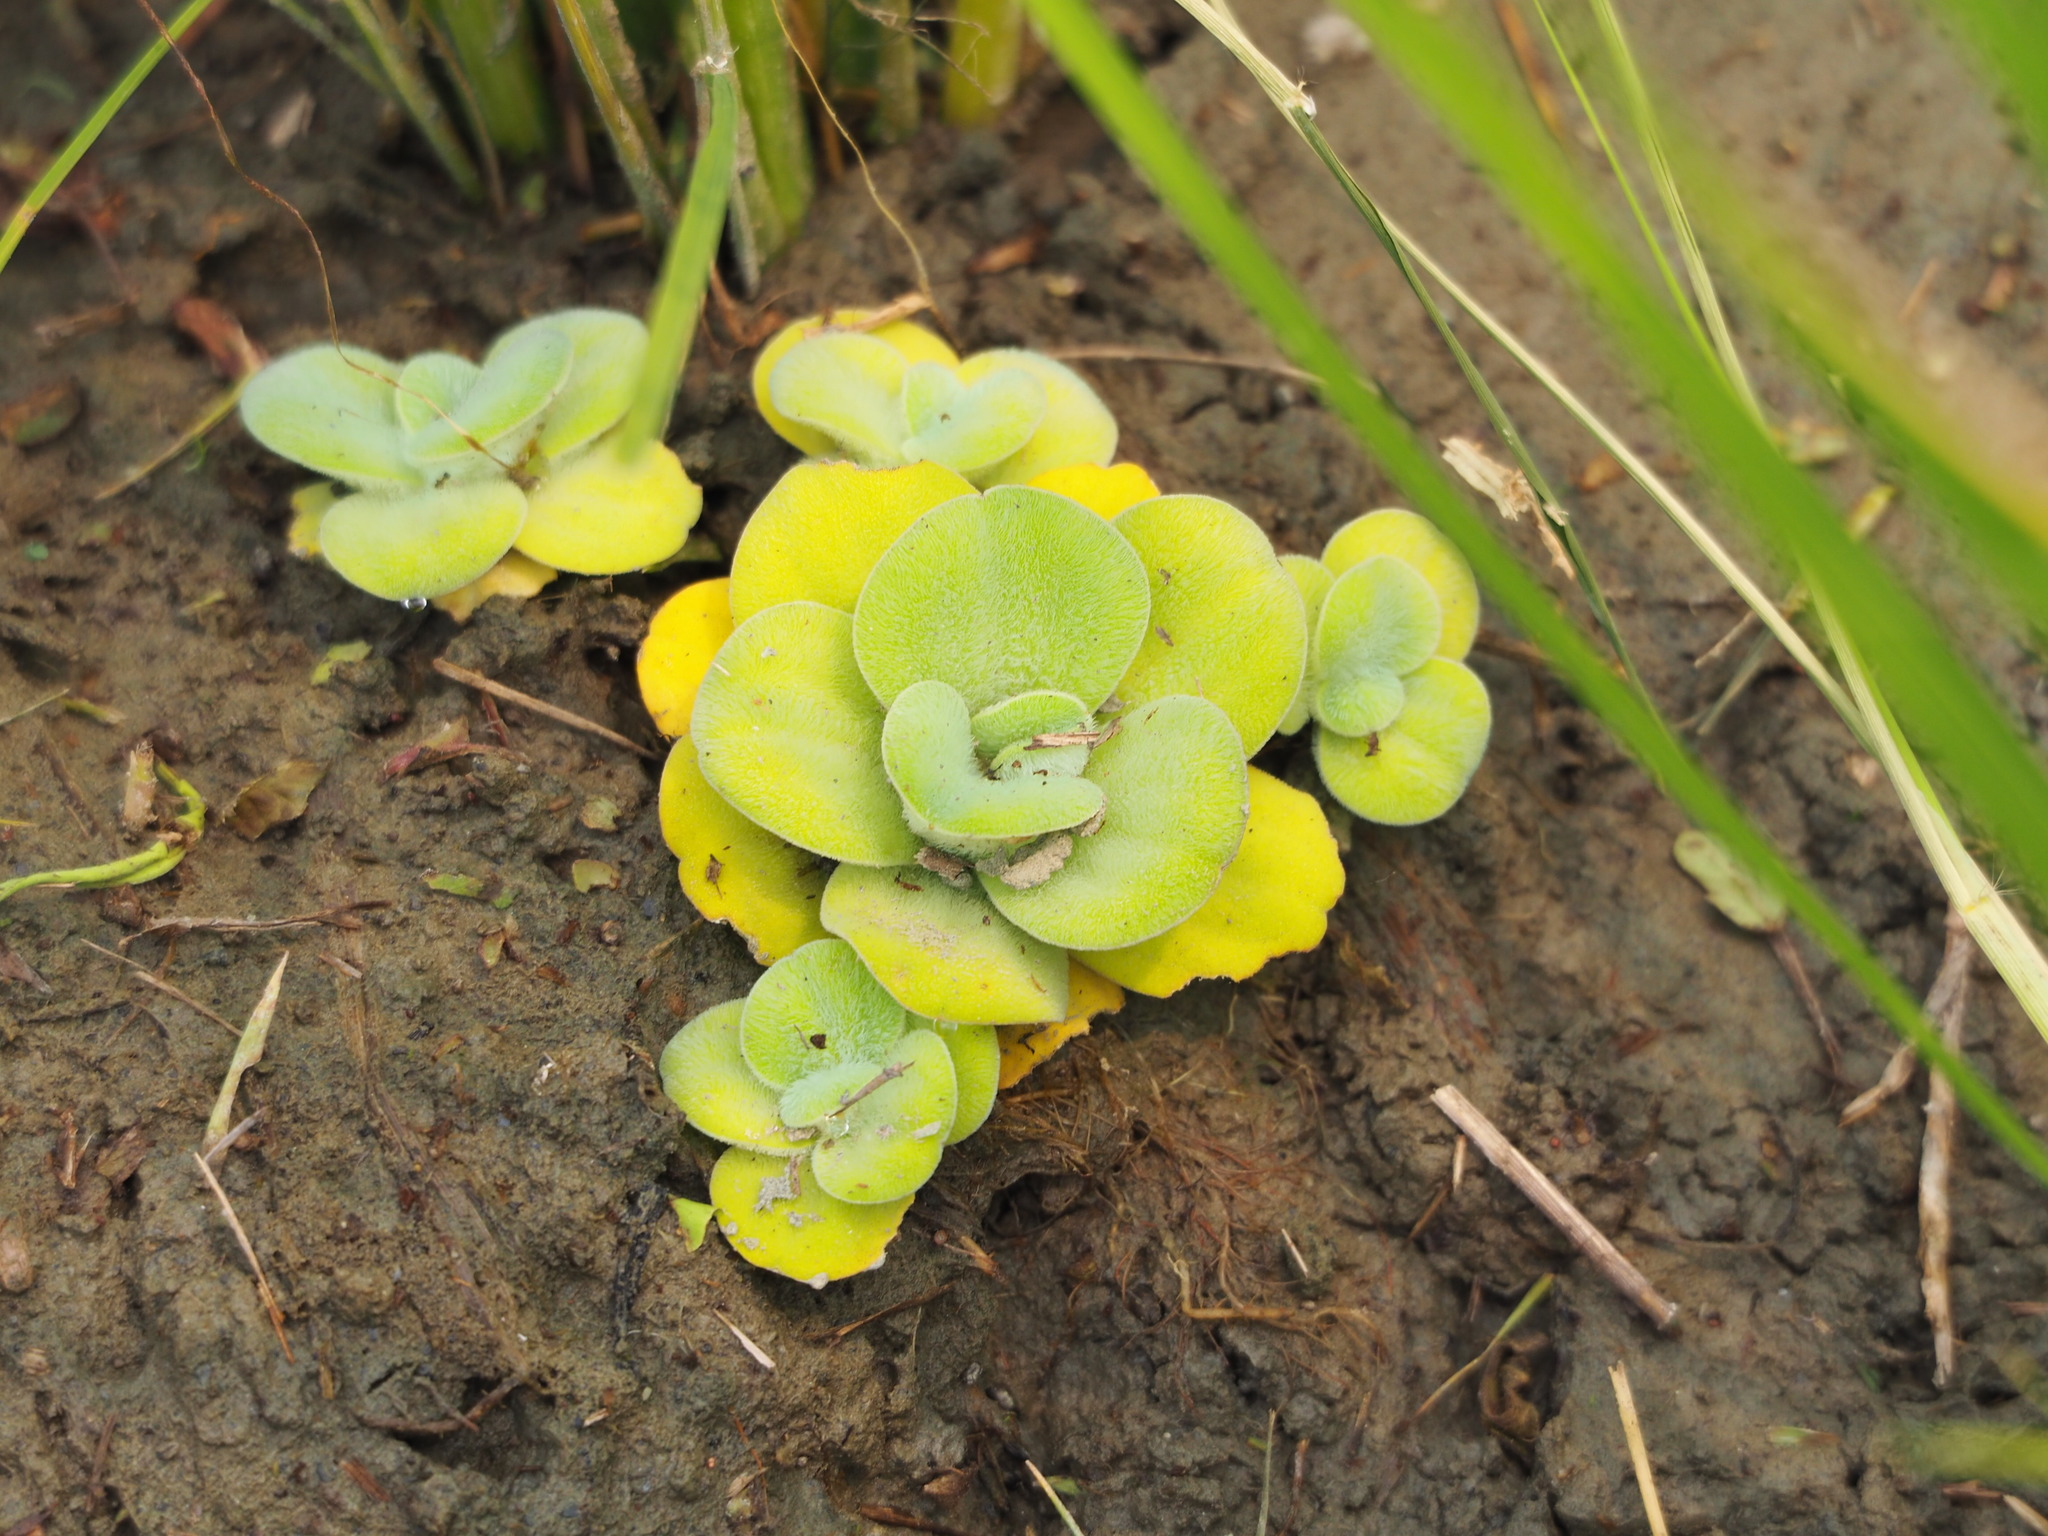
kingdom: Plantae
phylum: Tracheophyta
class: Liliopsida
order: Alismatales
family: Araceae
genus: Pistia
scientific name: Pistia stratiotes
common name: Water lettuce
